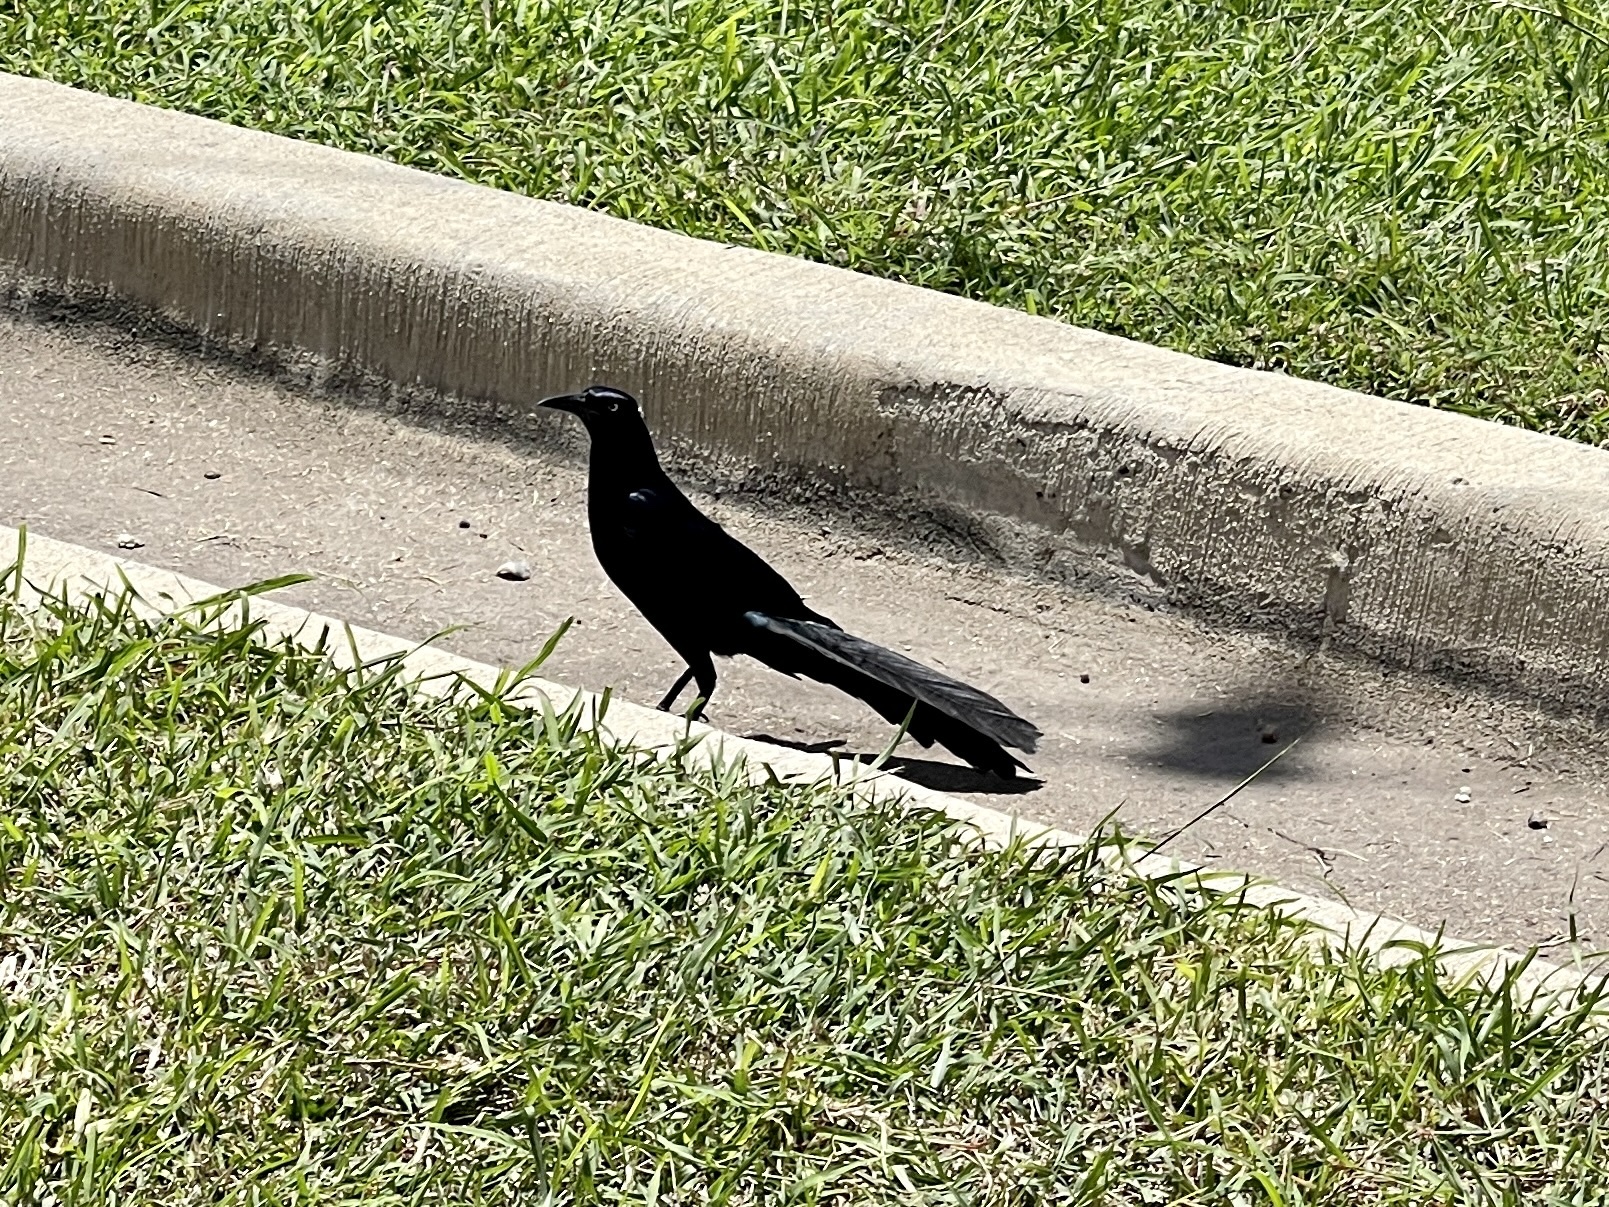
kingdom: Animalia
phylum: Chordata
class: Aves
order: Passeriformes
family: Icteridae
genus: Quiscalus
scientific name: Quiscalus mexicanus
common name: Great-tailed grackle
